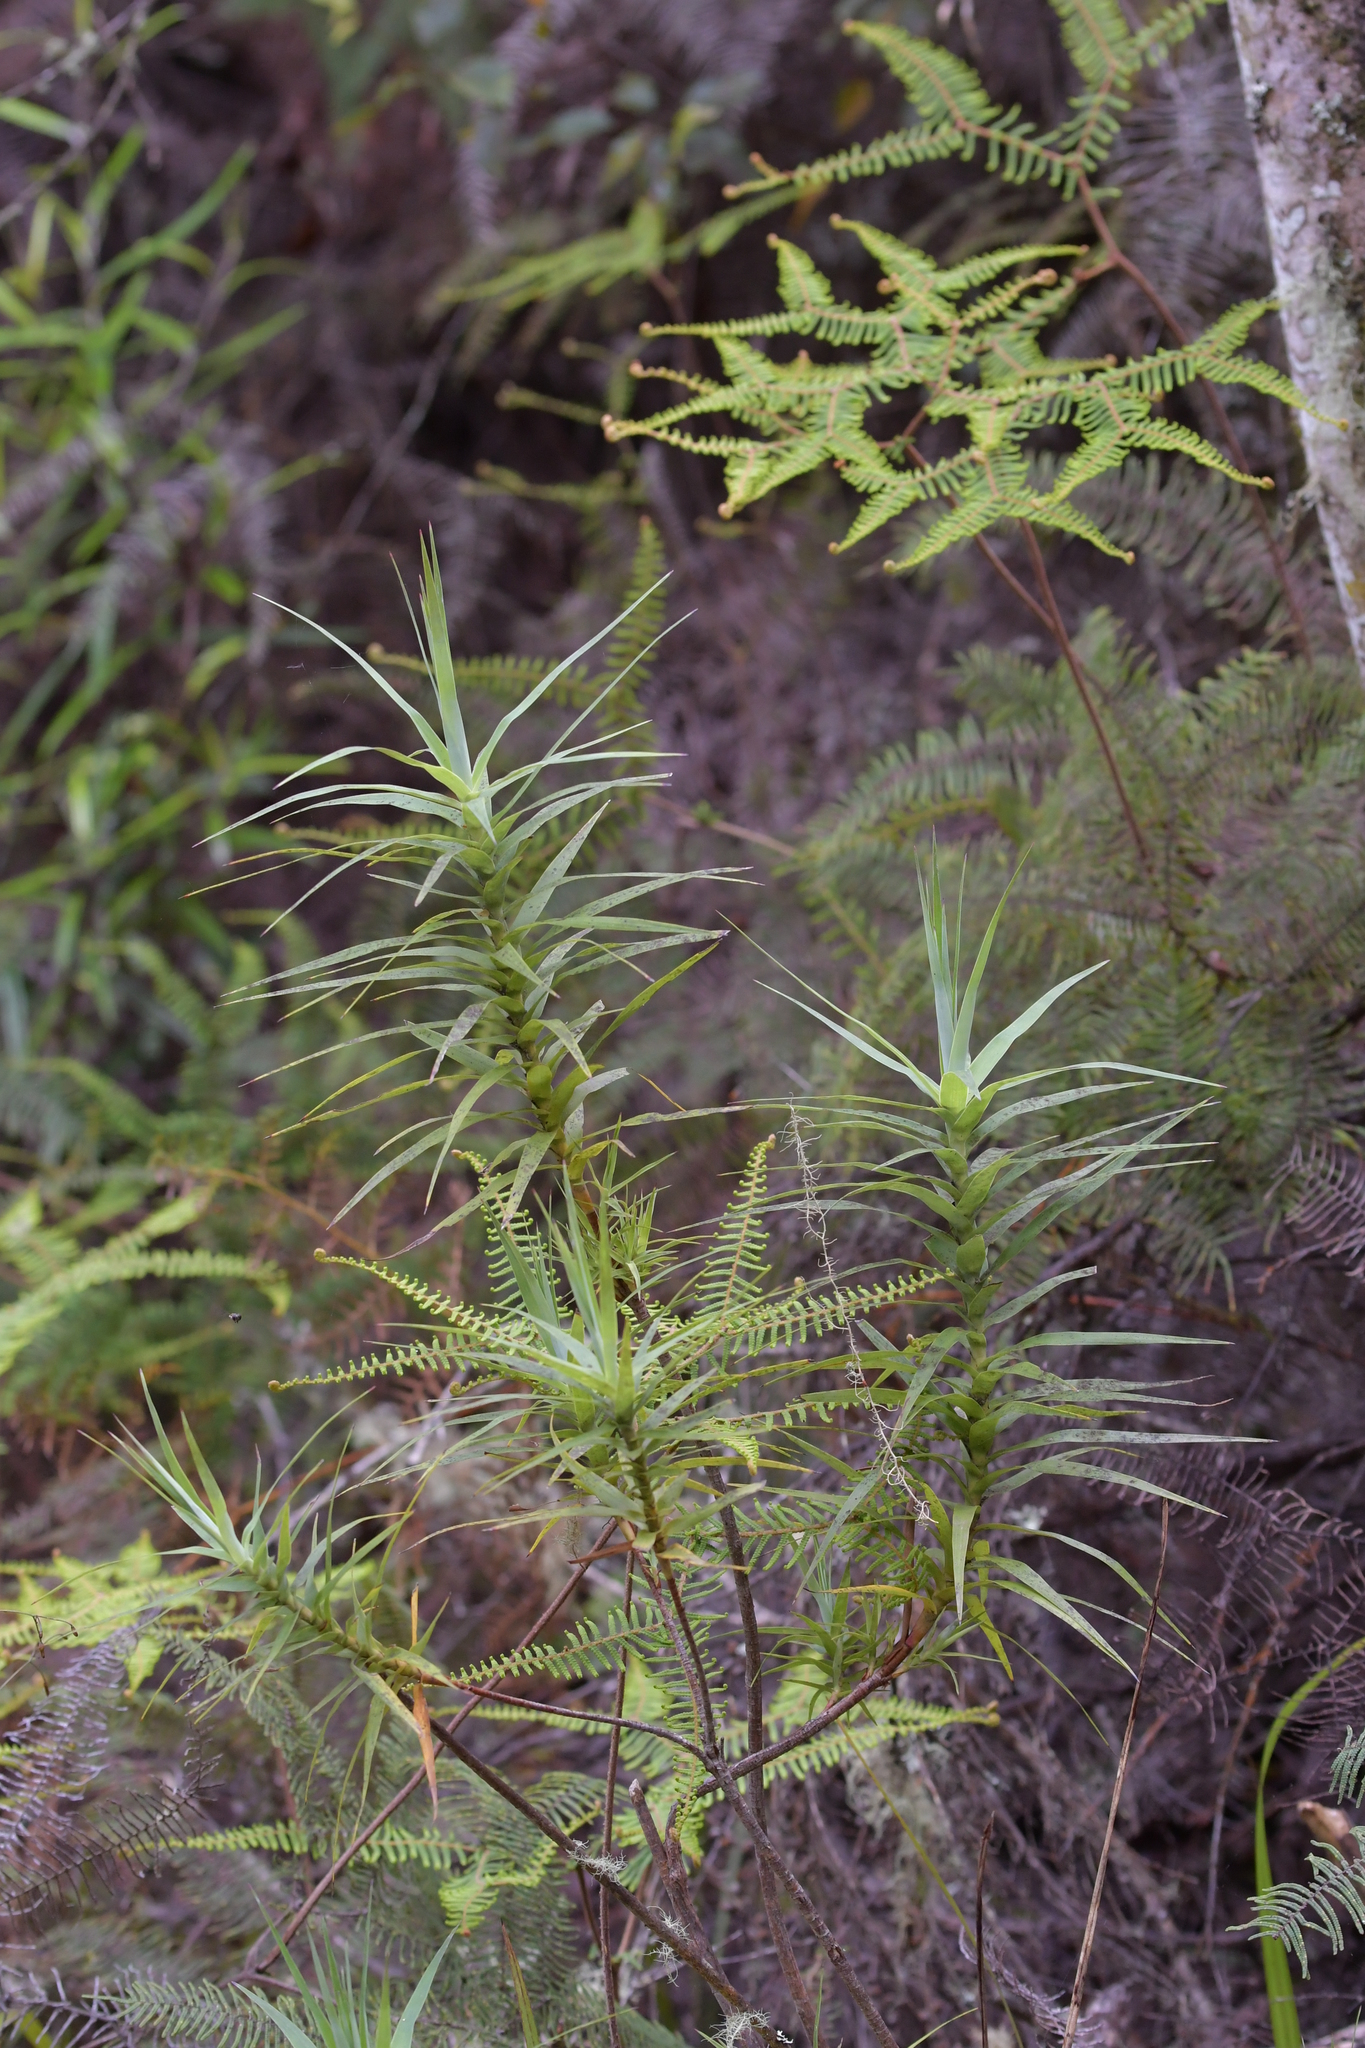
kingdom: Plantae
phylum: Tracheophyta
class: Magnoliopsida
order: Ericales
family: Ericaceae
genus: Dracophyllum
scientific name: Dracophyllum strictum
